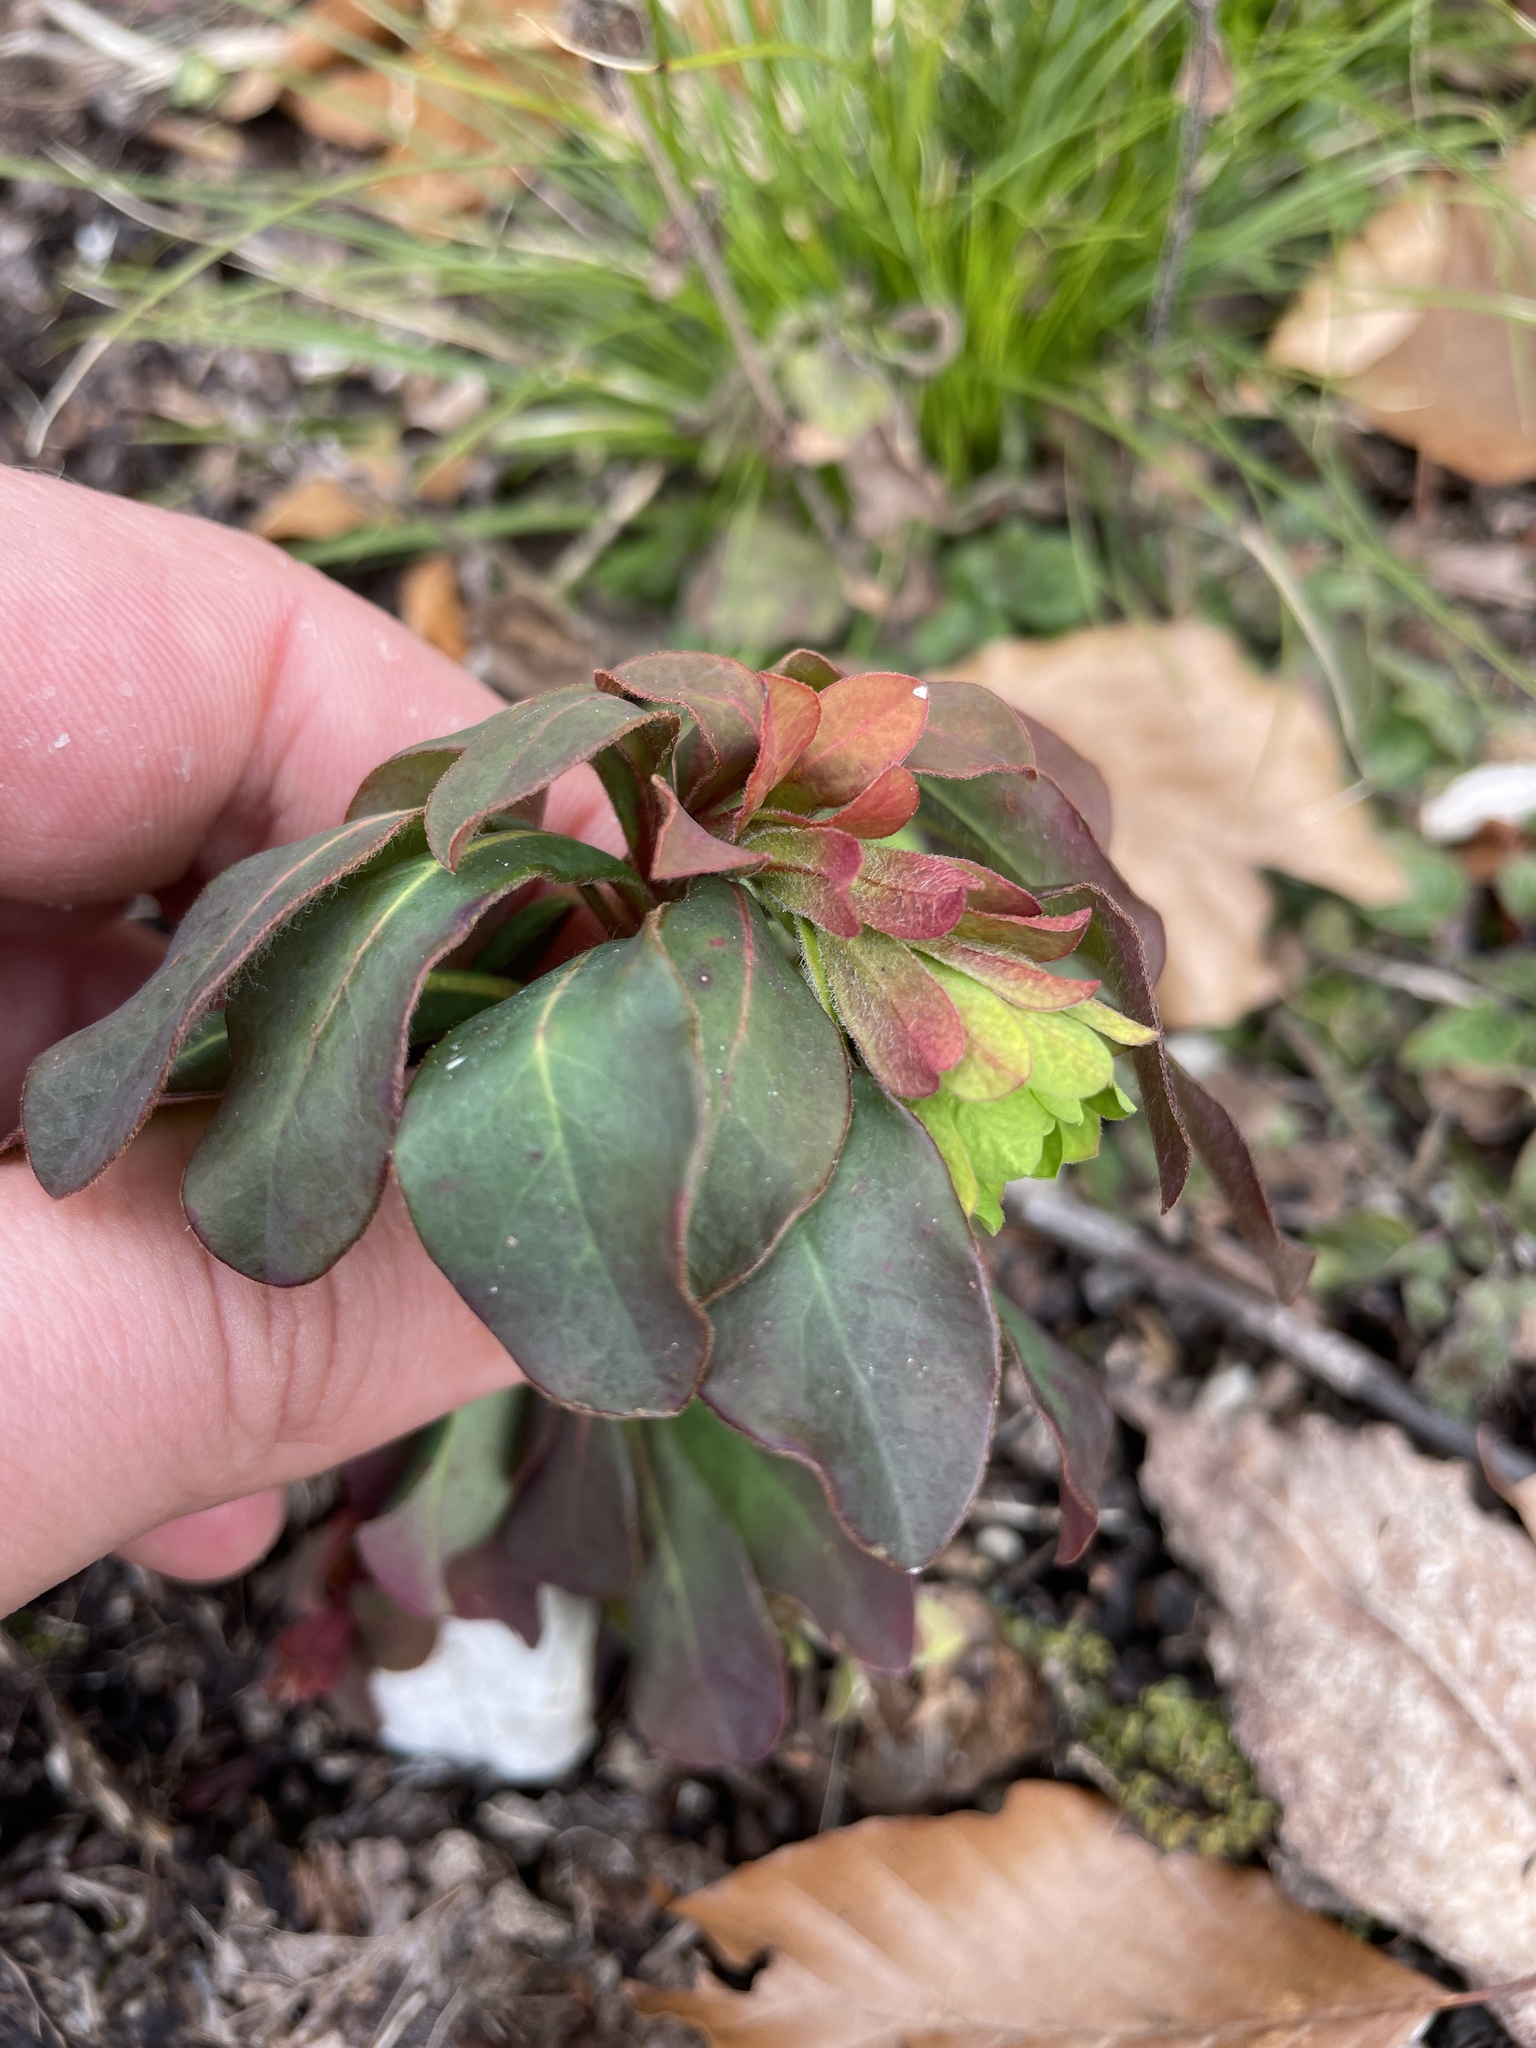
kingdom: Plantae
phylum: Tracheophyta
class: Magnoliopsida
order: Malpighiales
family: Euphorbiaceae
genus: Euphorbia
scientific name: Euphorbia amygdaloides
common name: Wood spurge
